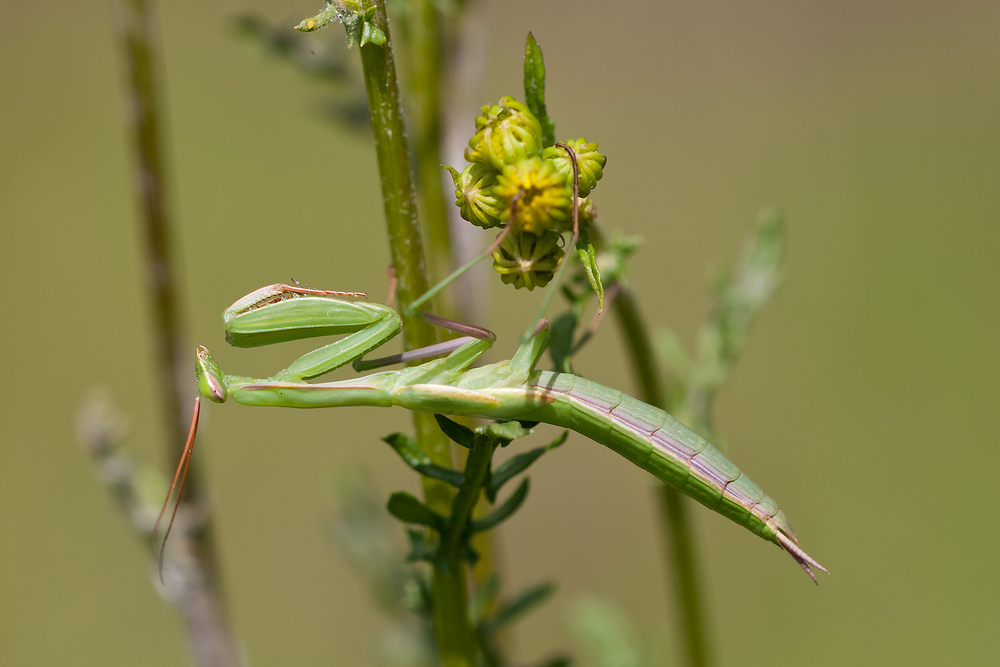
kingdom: Animalia
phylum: Arthropoda
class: Insecta
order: Mantodea
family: Mantidae
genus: Mantis
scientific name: Mantis religiosa
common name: Praying mantis
